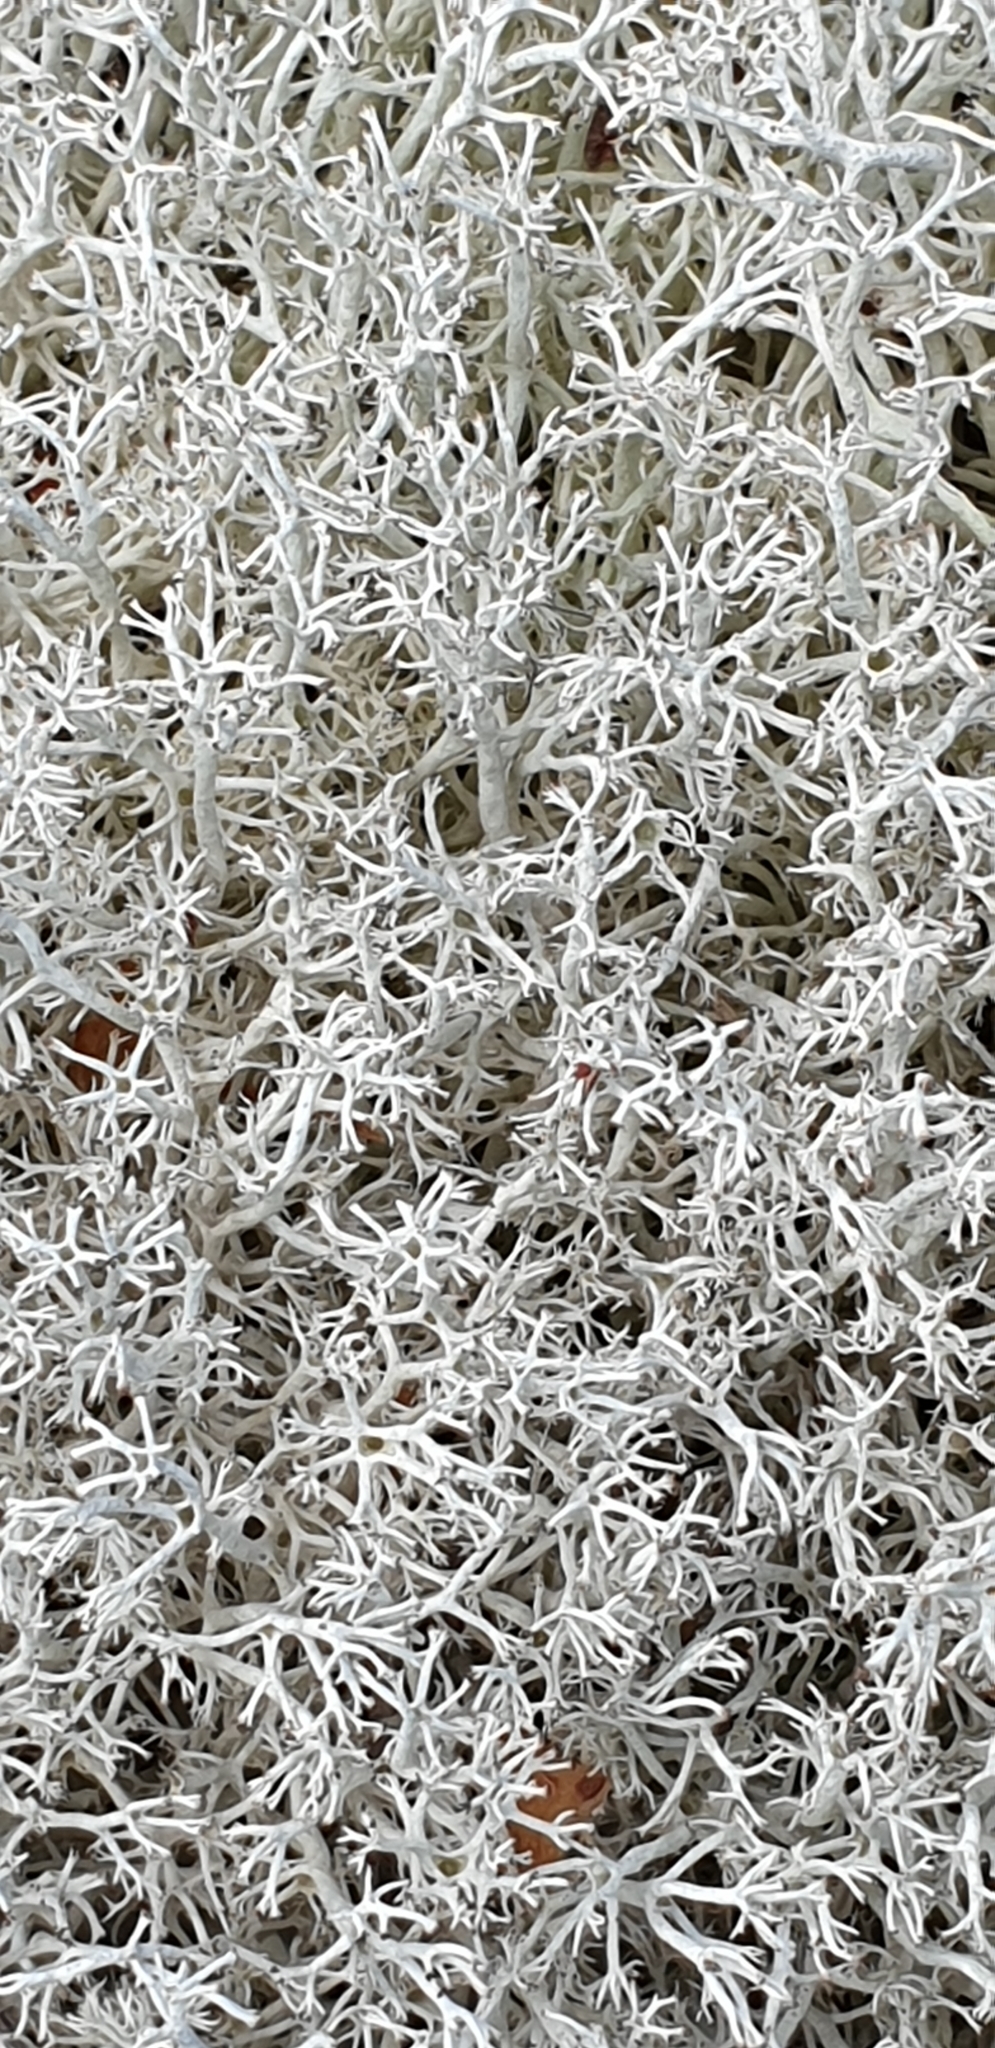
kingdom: Fungi
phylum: Ascomycota
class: Lecanoromycetes
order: Lecanorales
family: Cladoniaceae
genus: Cladonia
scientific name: Cladonia rangiferina
